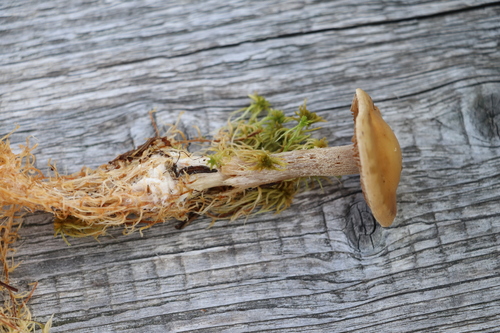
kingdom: Fungi
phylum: Basidiomycota
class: Agaricomycetes
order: Agaricales
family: Hymenogastraceae
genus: Hebeloma
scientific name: Hebeloma incarnatulum
